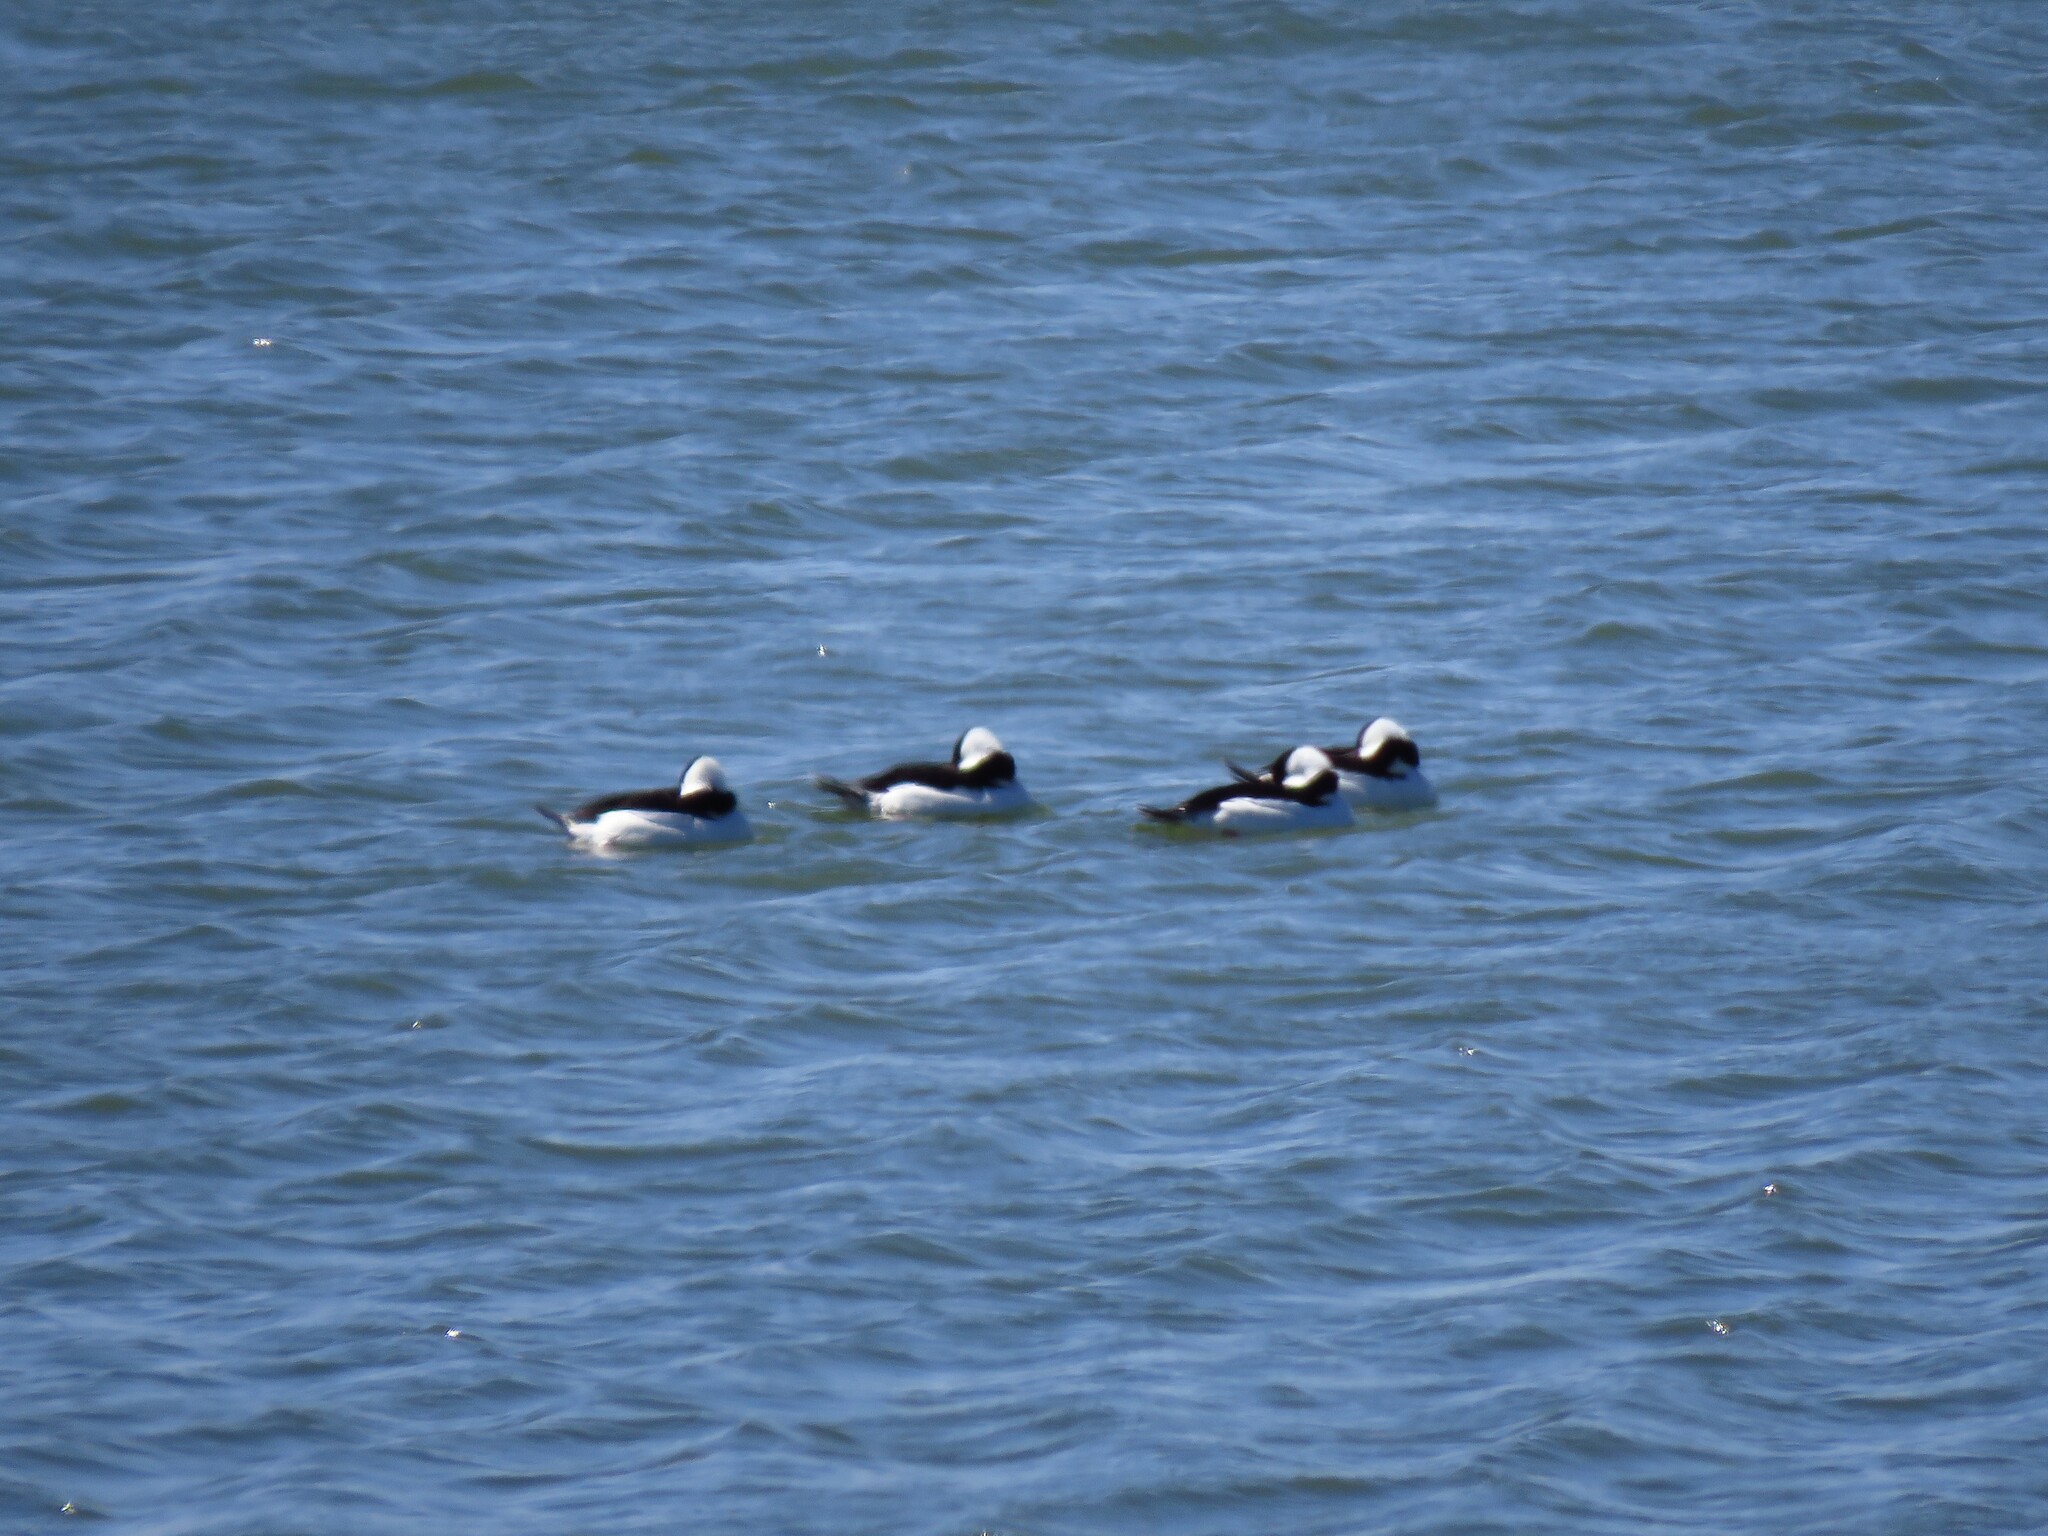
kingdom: Animalia
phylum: Chordata
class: Aves
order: Anseriformes
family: Anatidae
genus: Bucephala
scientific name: Bucephala albeola
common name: Bufflehead
